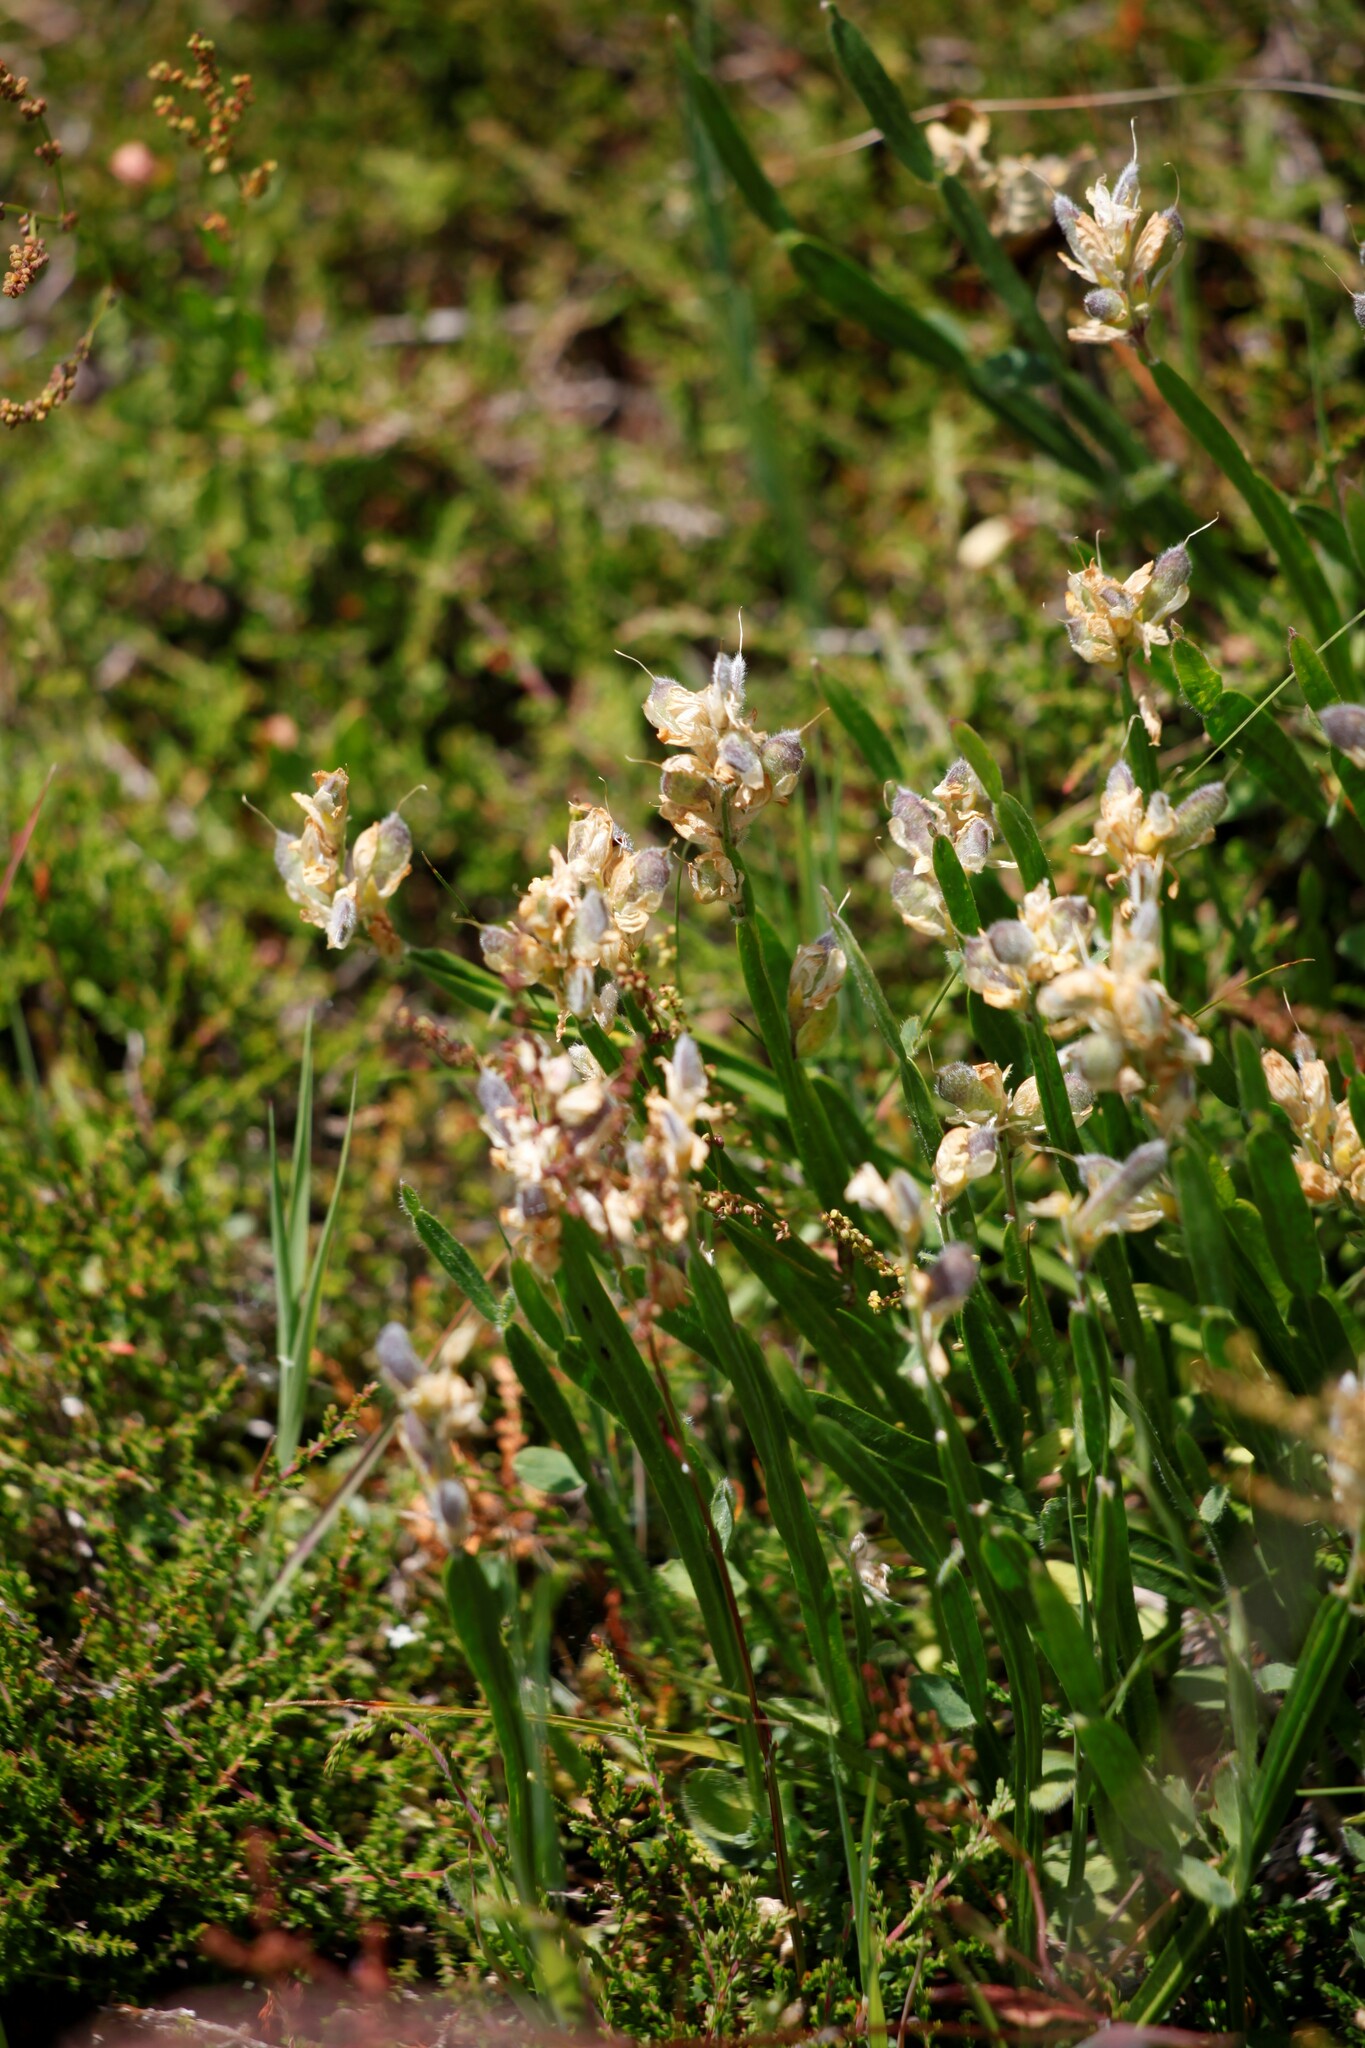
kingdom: Plantae
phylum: Tracheophyta
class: Magnoliopsida
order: Fabales
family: Fabaceae
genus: Genista
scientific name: Genista sagittalis
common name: Winged greenweed
